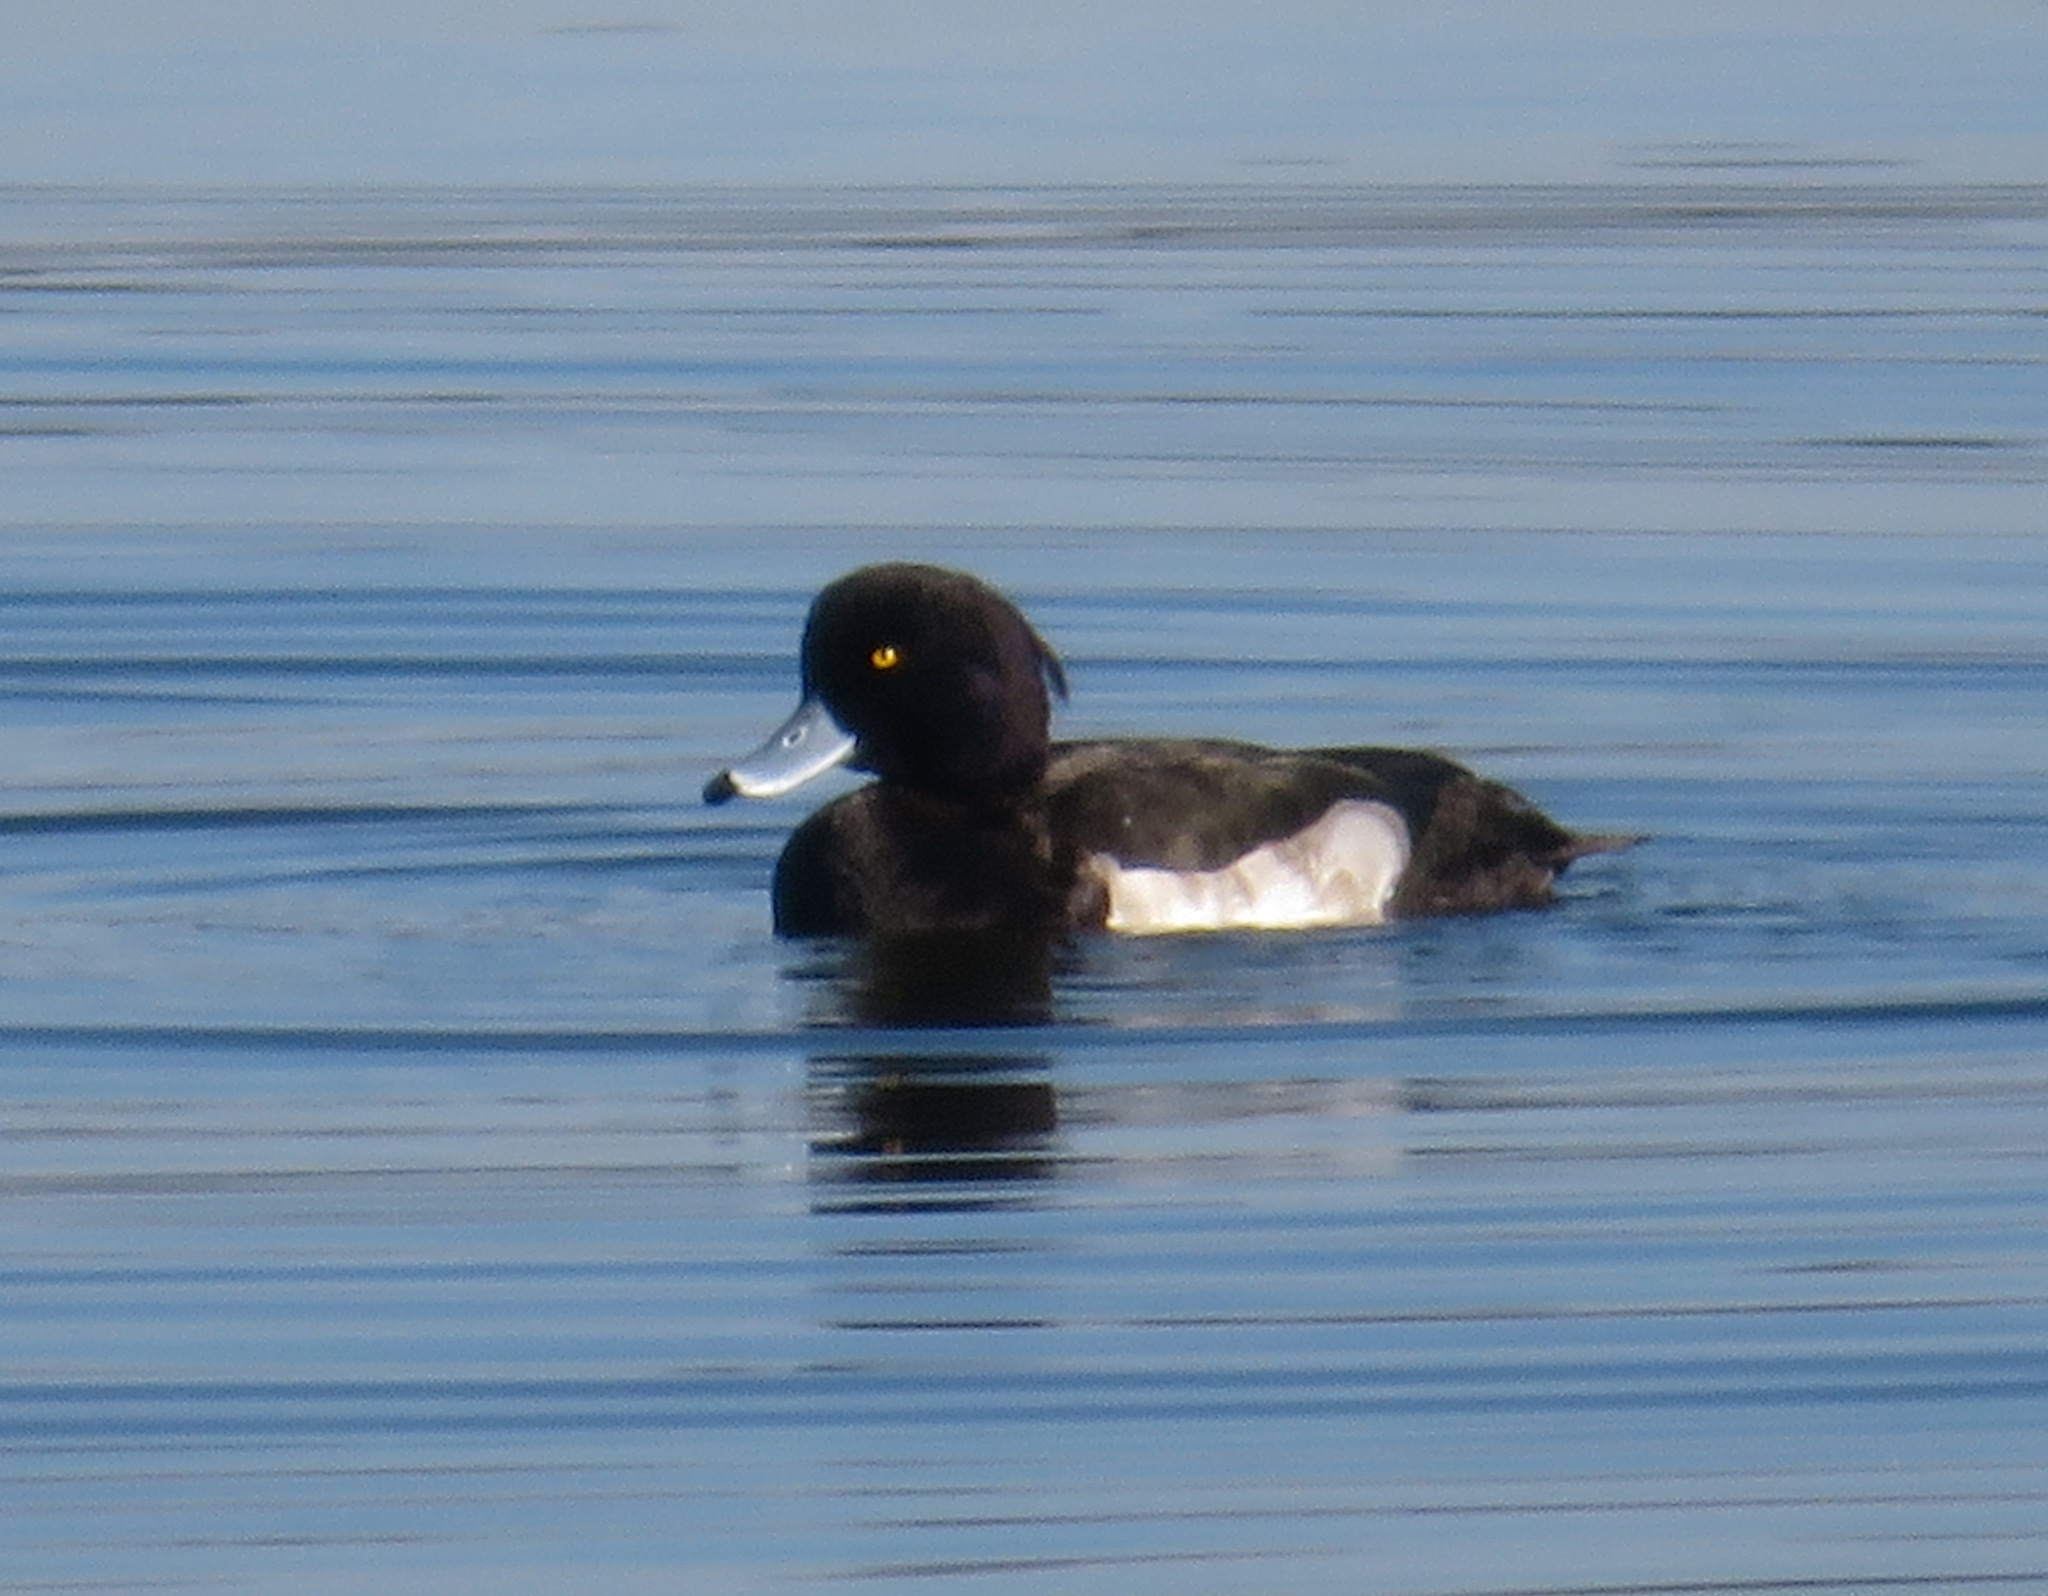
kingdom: Animalia
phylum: Chordata
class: Aves
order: Anseriformes
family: Anatidae
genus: Aythya
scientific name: Aythya fuligula
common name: Tufted duck
